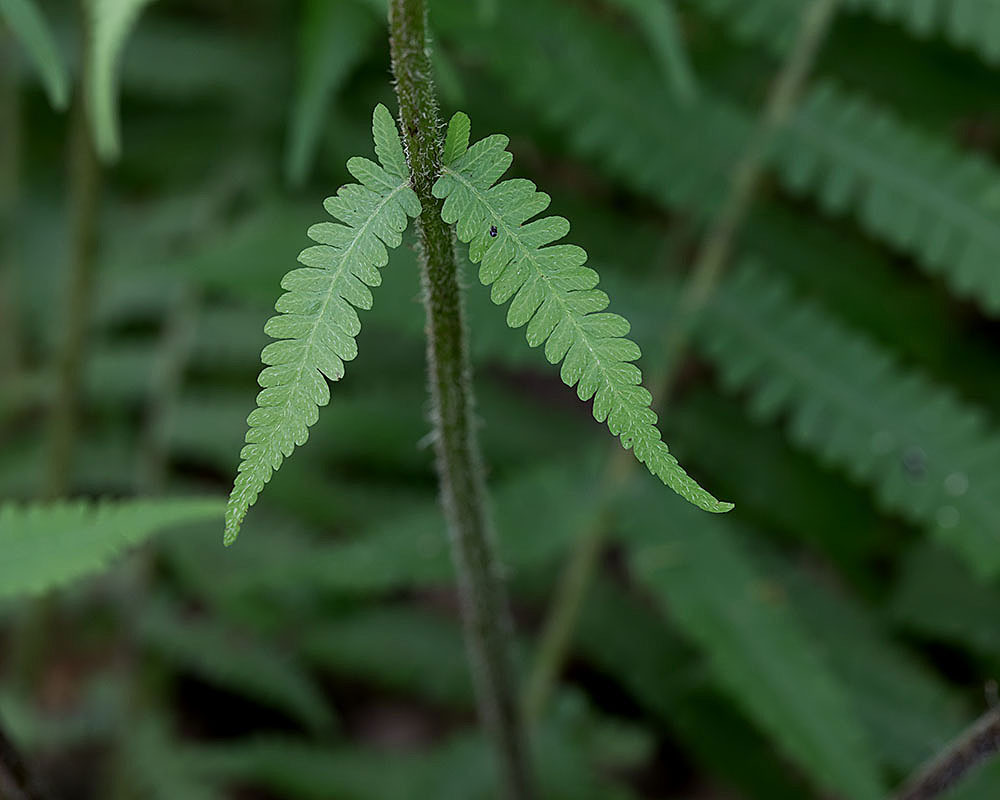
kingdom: Plantae
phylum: Tracheophyta
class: Polypodiopsida
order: Polypodiales
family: Athyriaceae
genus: Deparia
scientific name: Deparia acrostichoides
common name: Silver false spleenwort
